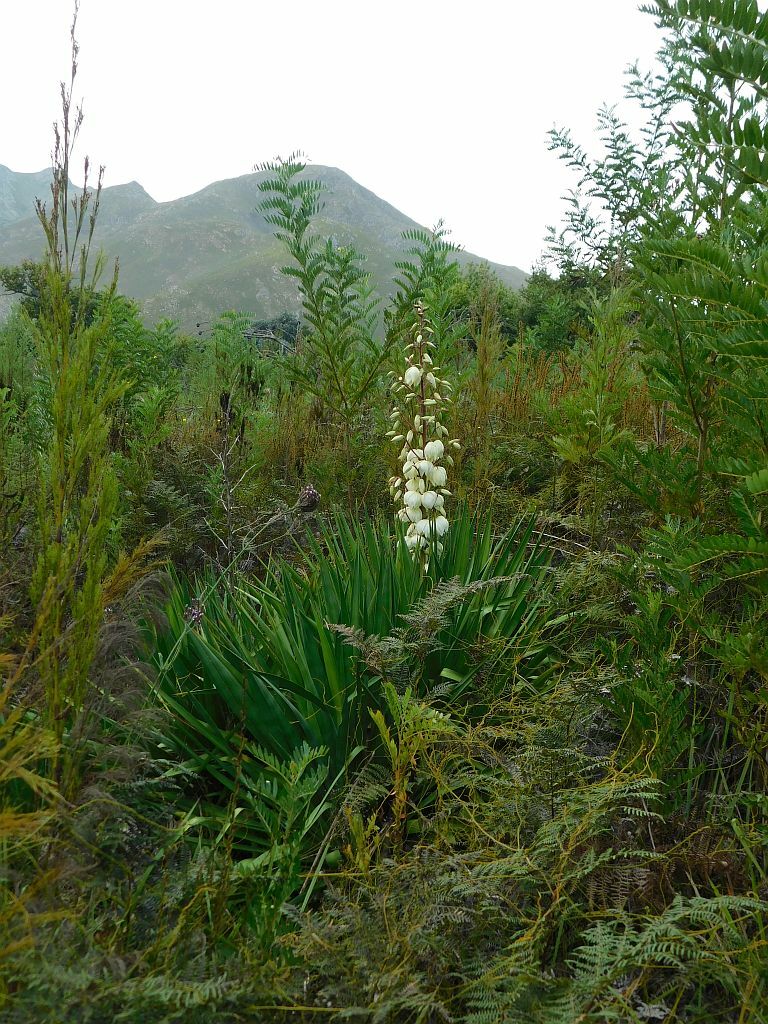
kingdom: Plantae
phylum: Tracheophyta
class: Liliopsida
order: Asparagales
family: Asparagaceae
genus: Yucca
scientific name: Yucca gloriosa
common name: Spanish-dagger
